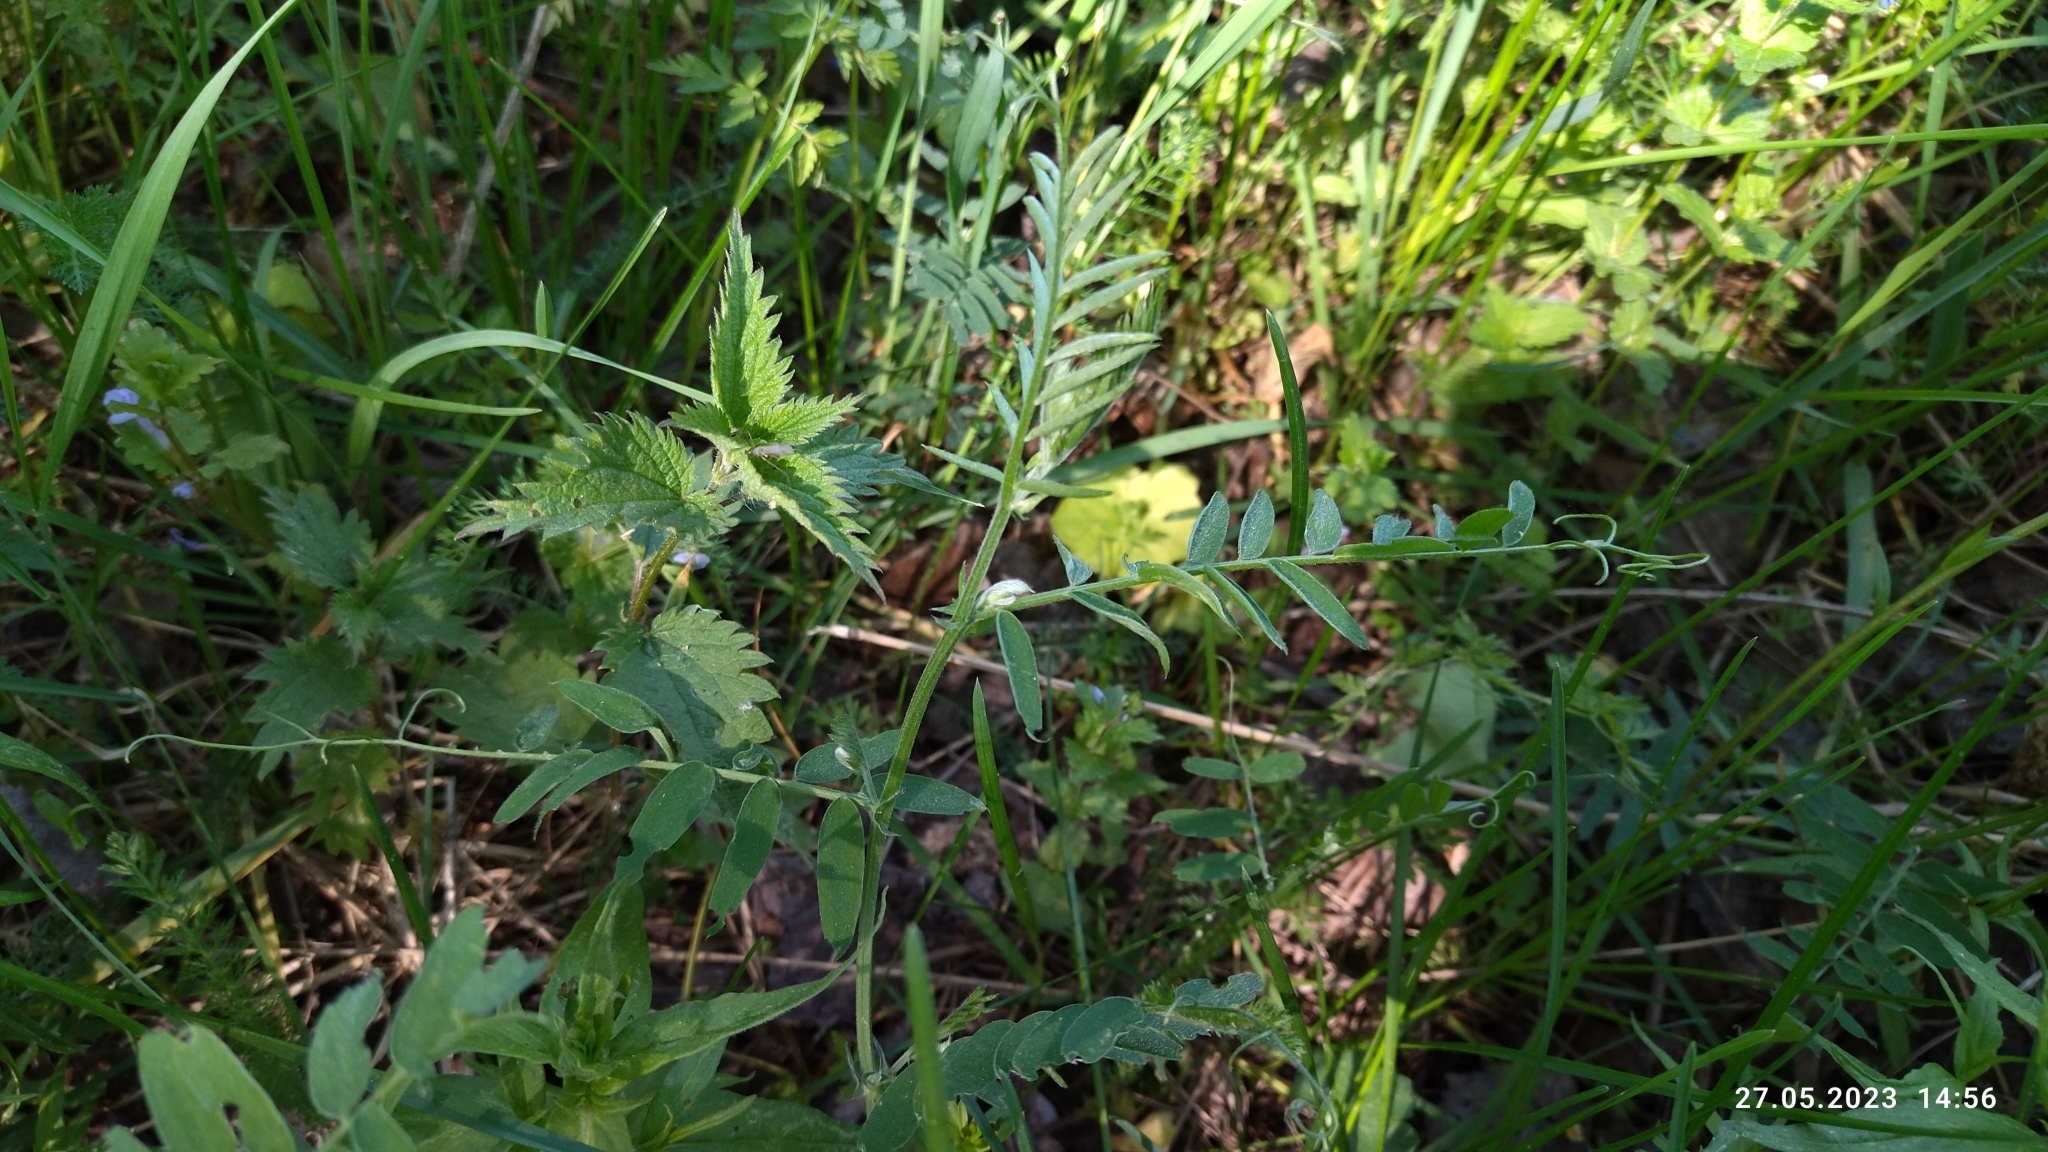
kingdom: Plantae
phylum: Tracheophyta
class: Magnoliopsida
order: Fabales
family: Fabaceae
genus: Vicia
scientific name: Vicia cracca
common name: Bird vetch
